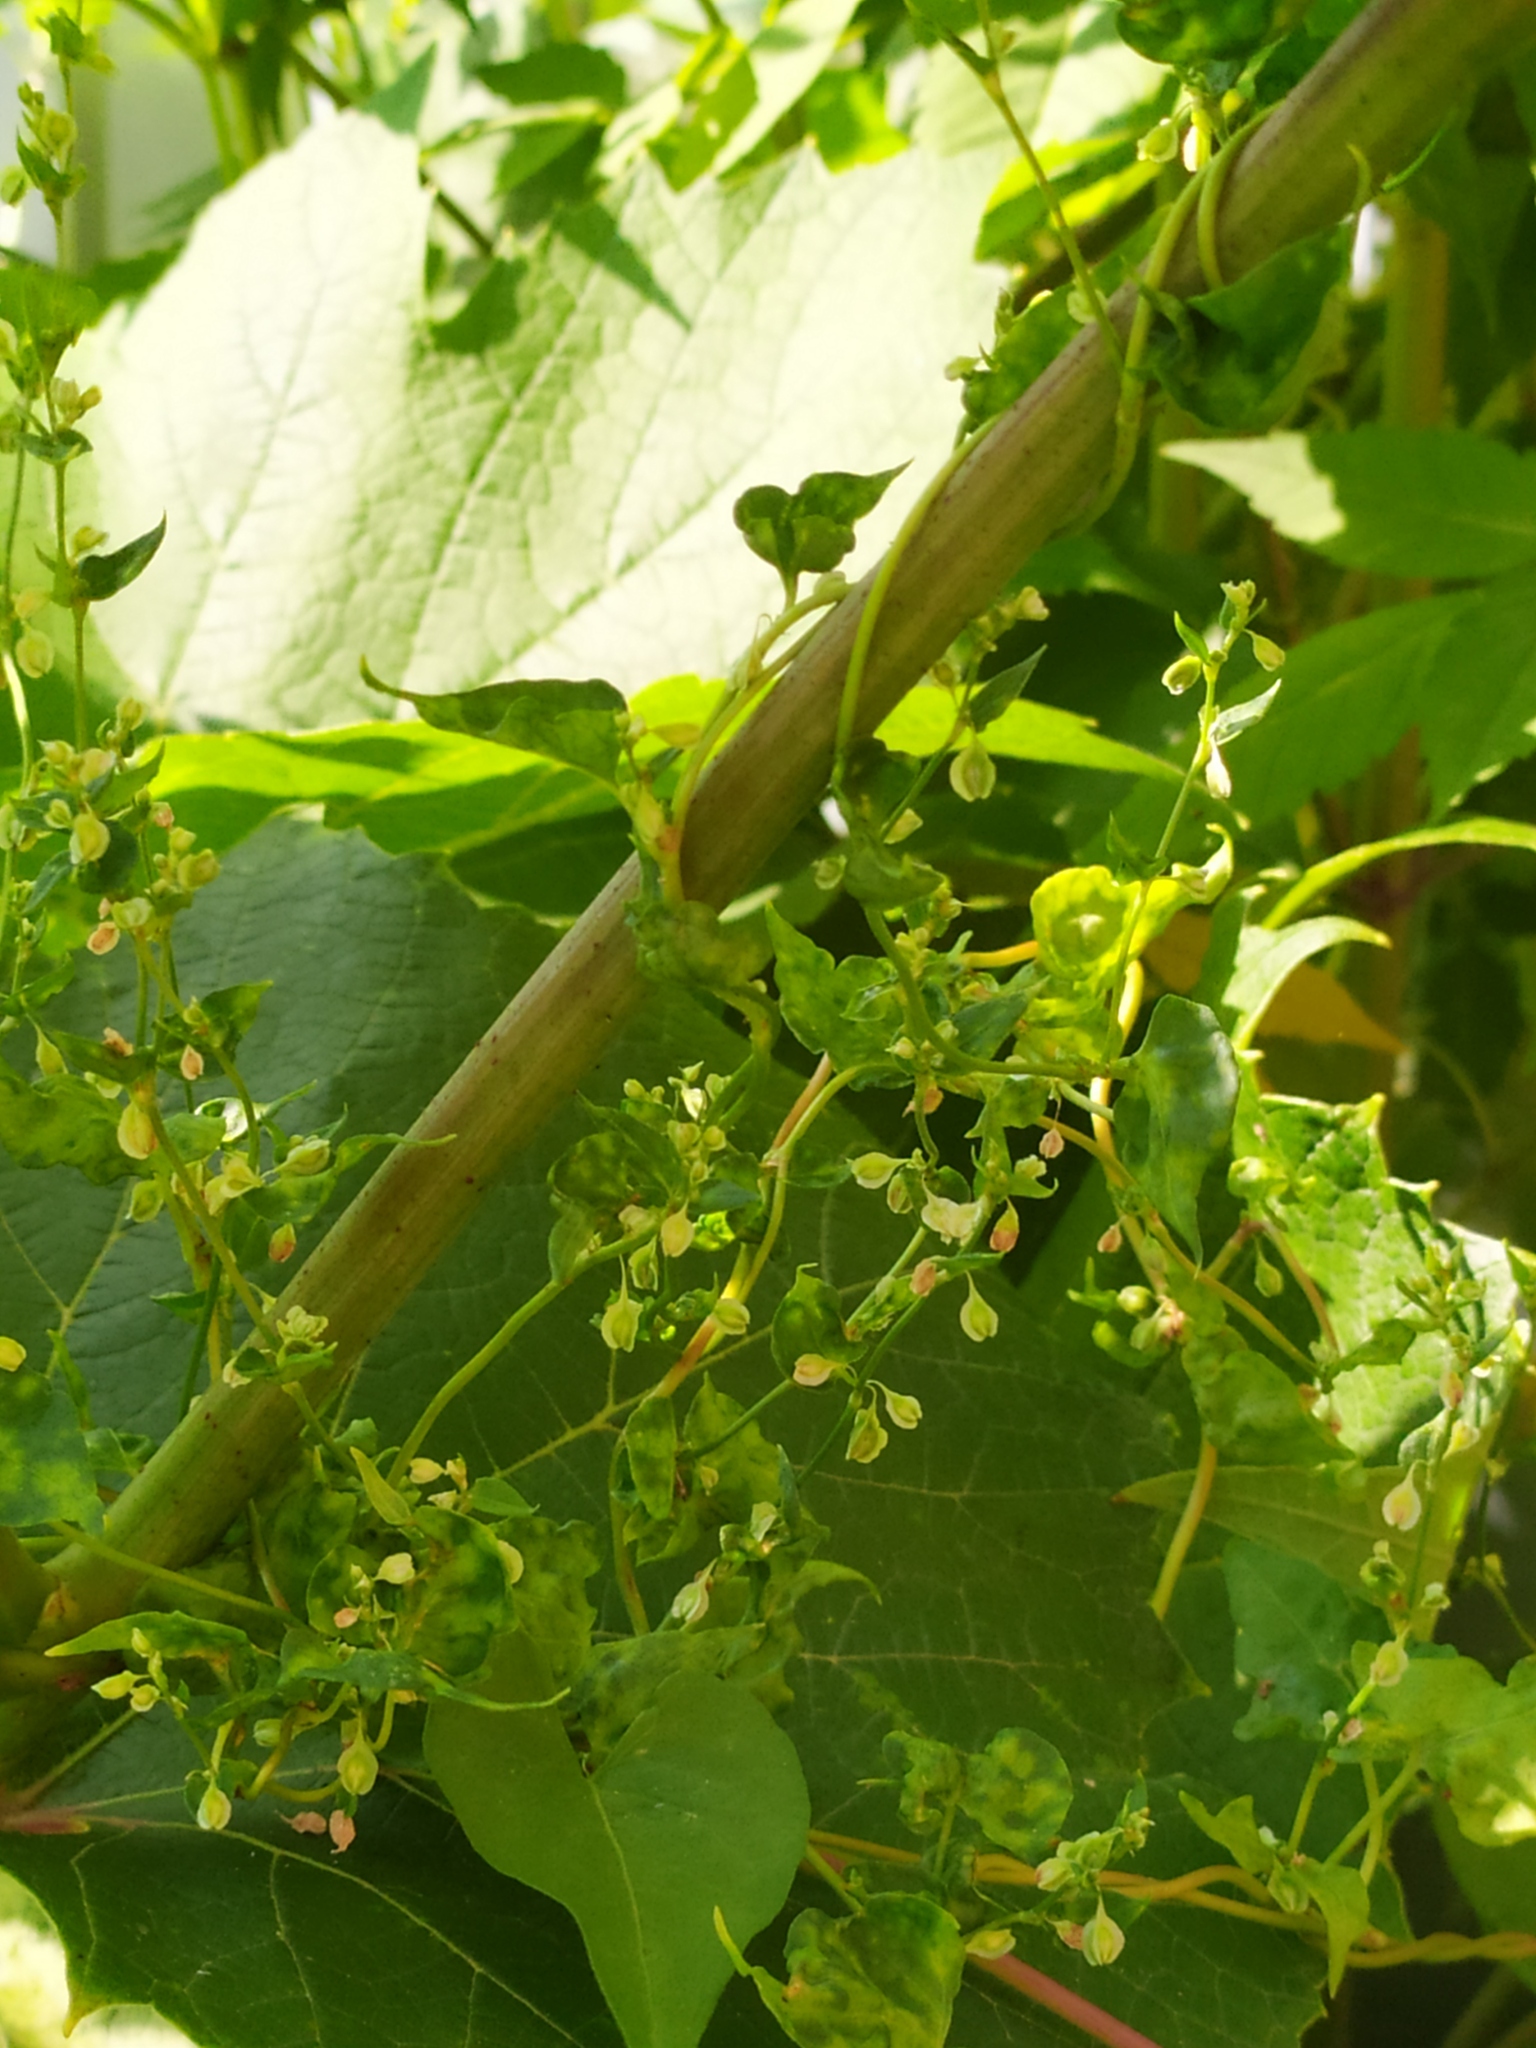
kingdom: Plantae
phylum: Tracheophyta
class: Magnoliopsida
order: Caryophyllales
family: Polygonaceae
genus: Fallopia
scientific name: Fallopia dumetorum
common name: Copse-bindweed
